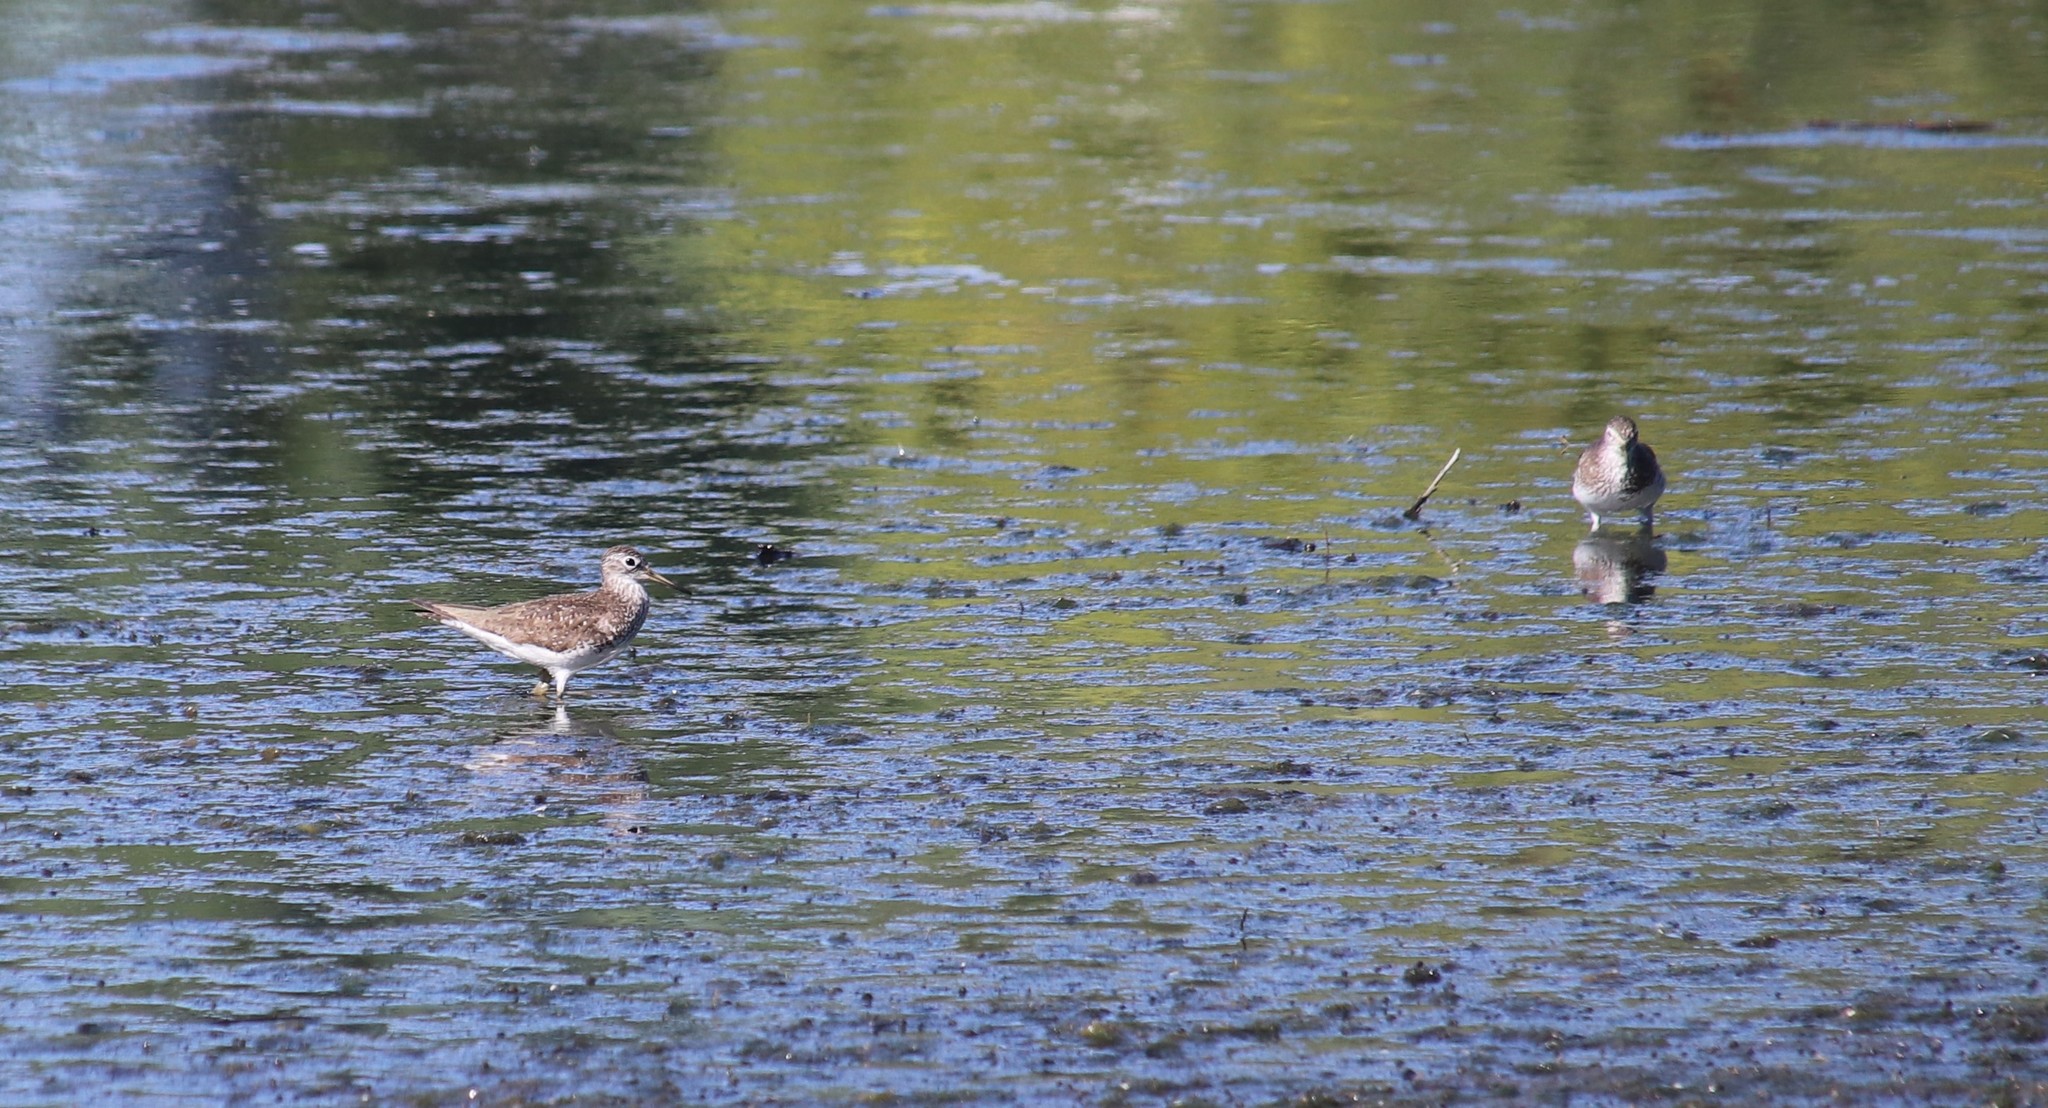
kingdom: Animalia
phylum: Chordata
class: Aves
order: Charadriiformes
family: Scolopacidae
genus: Tringa
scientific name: Tringa solitaria
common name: Solitary sandpiper
